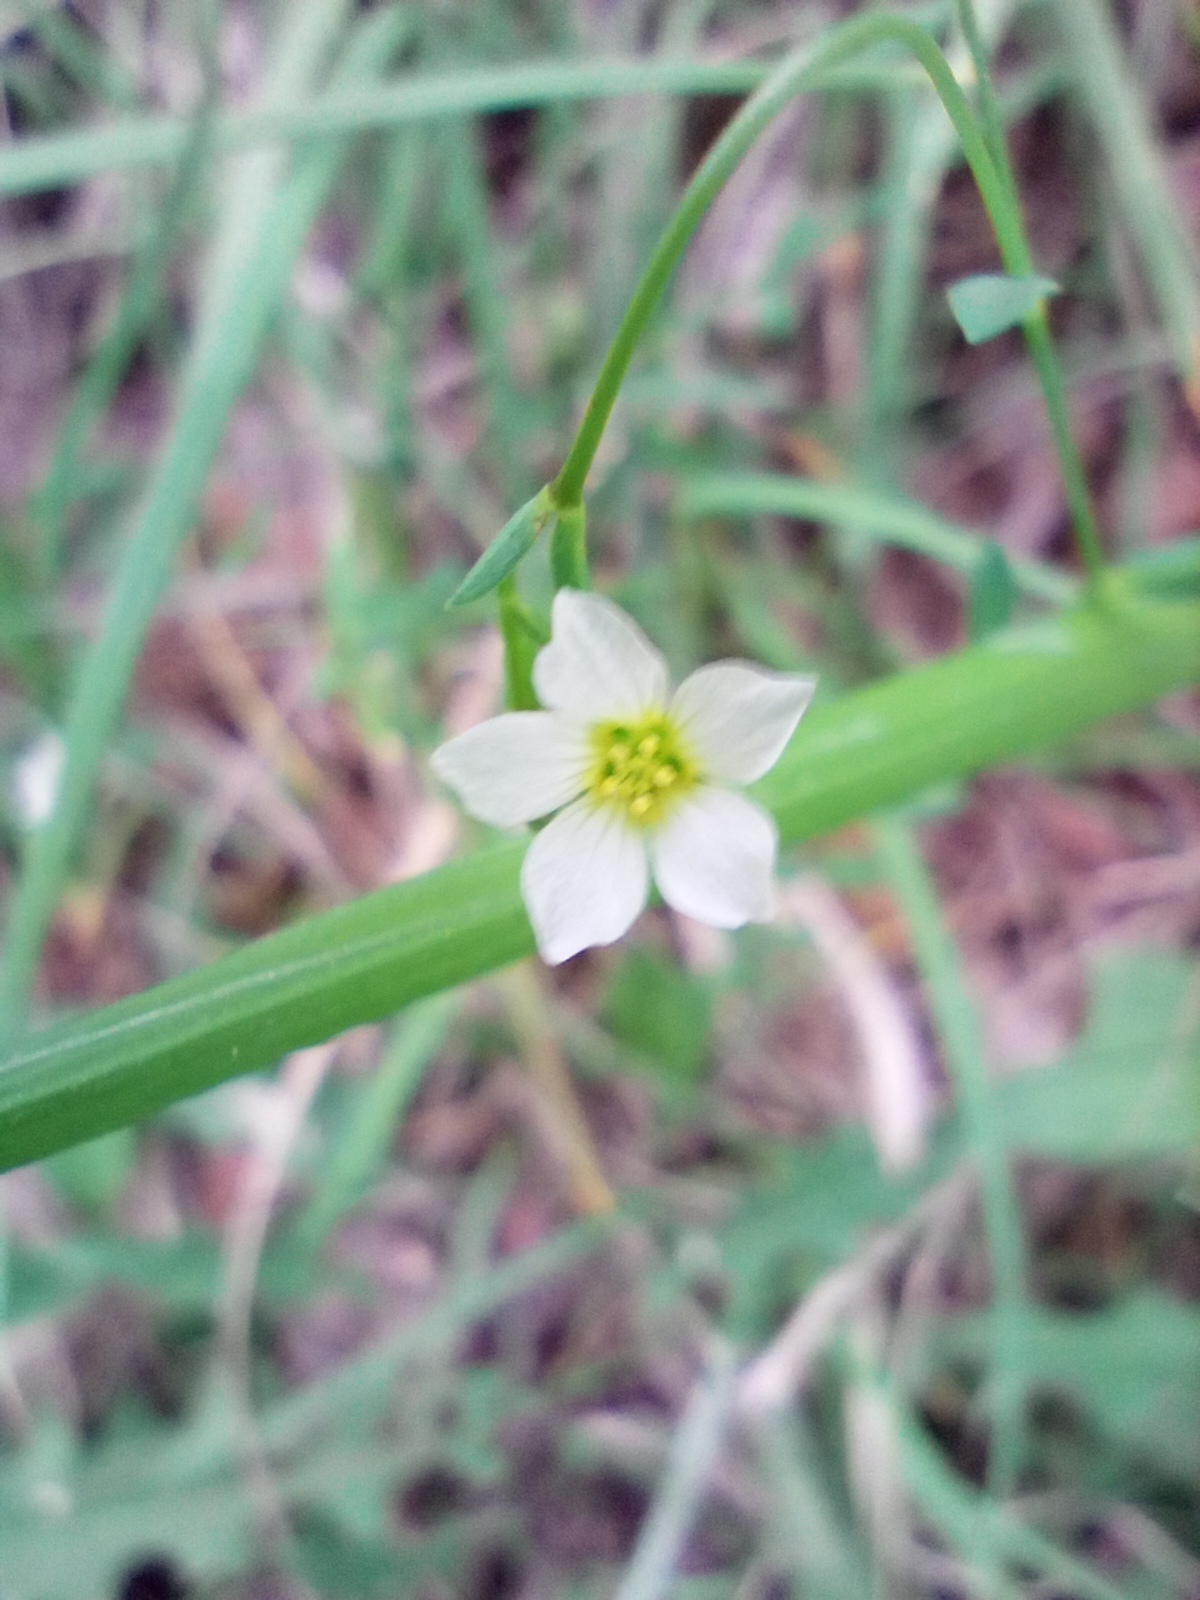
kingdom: Plantae
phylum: Tracheophyta
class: Magnoliopsida
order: Malpighiales
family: Linaceae
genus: Linum
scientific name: Linum catharticum
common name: Fairy flax
